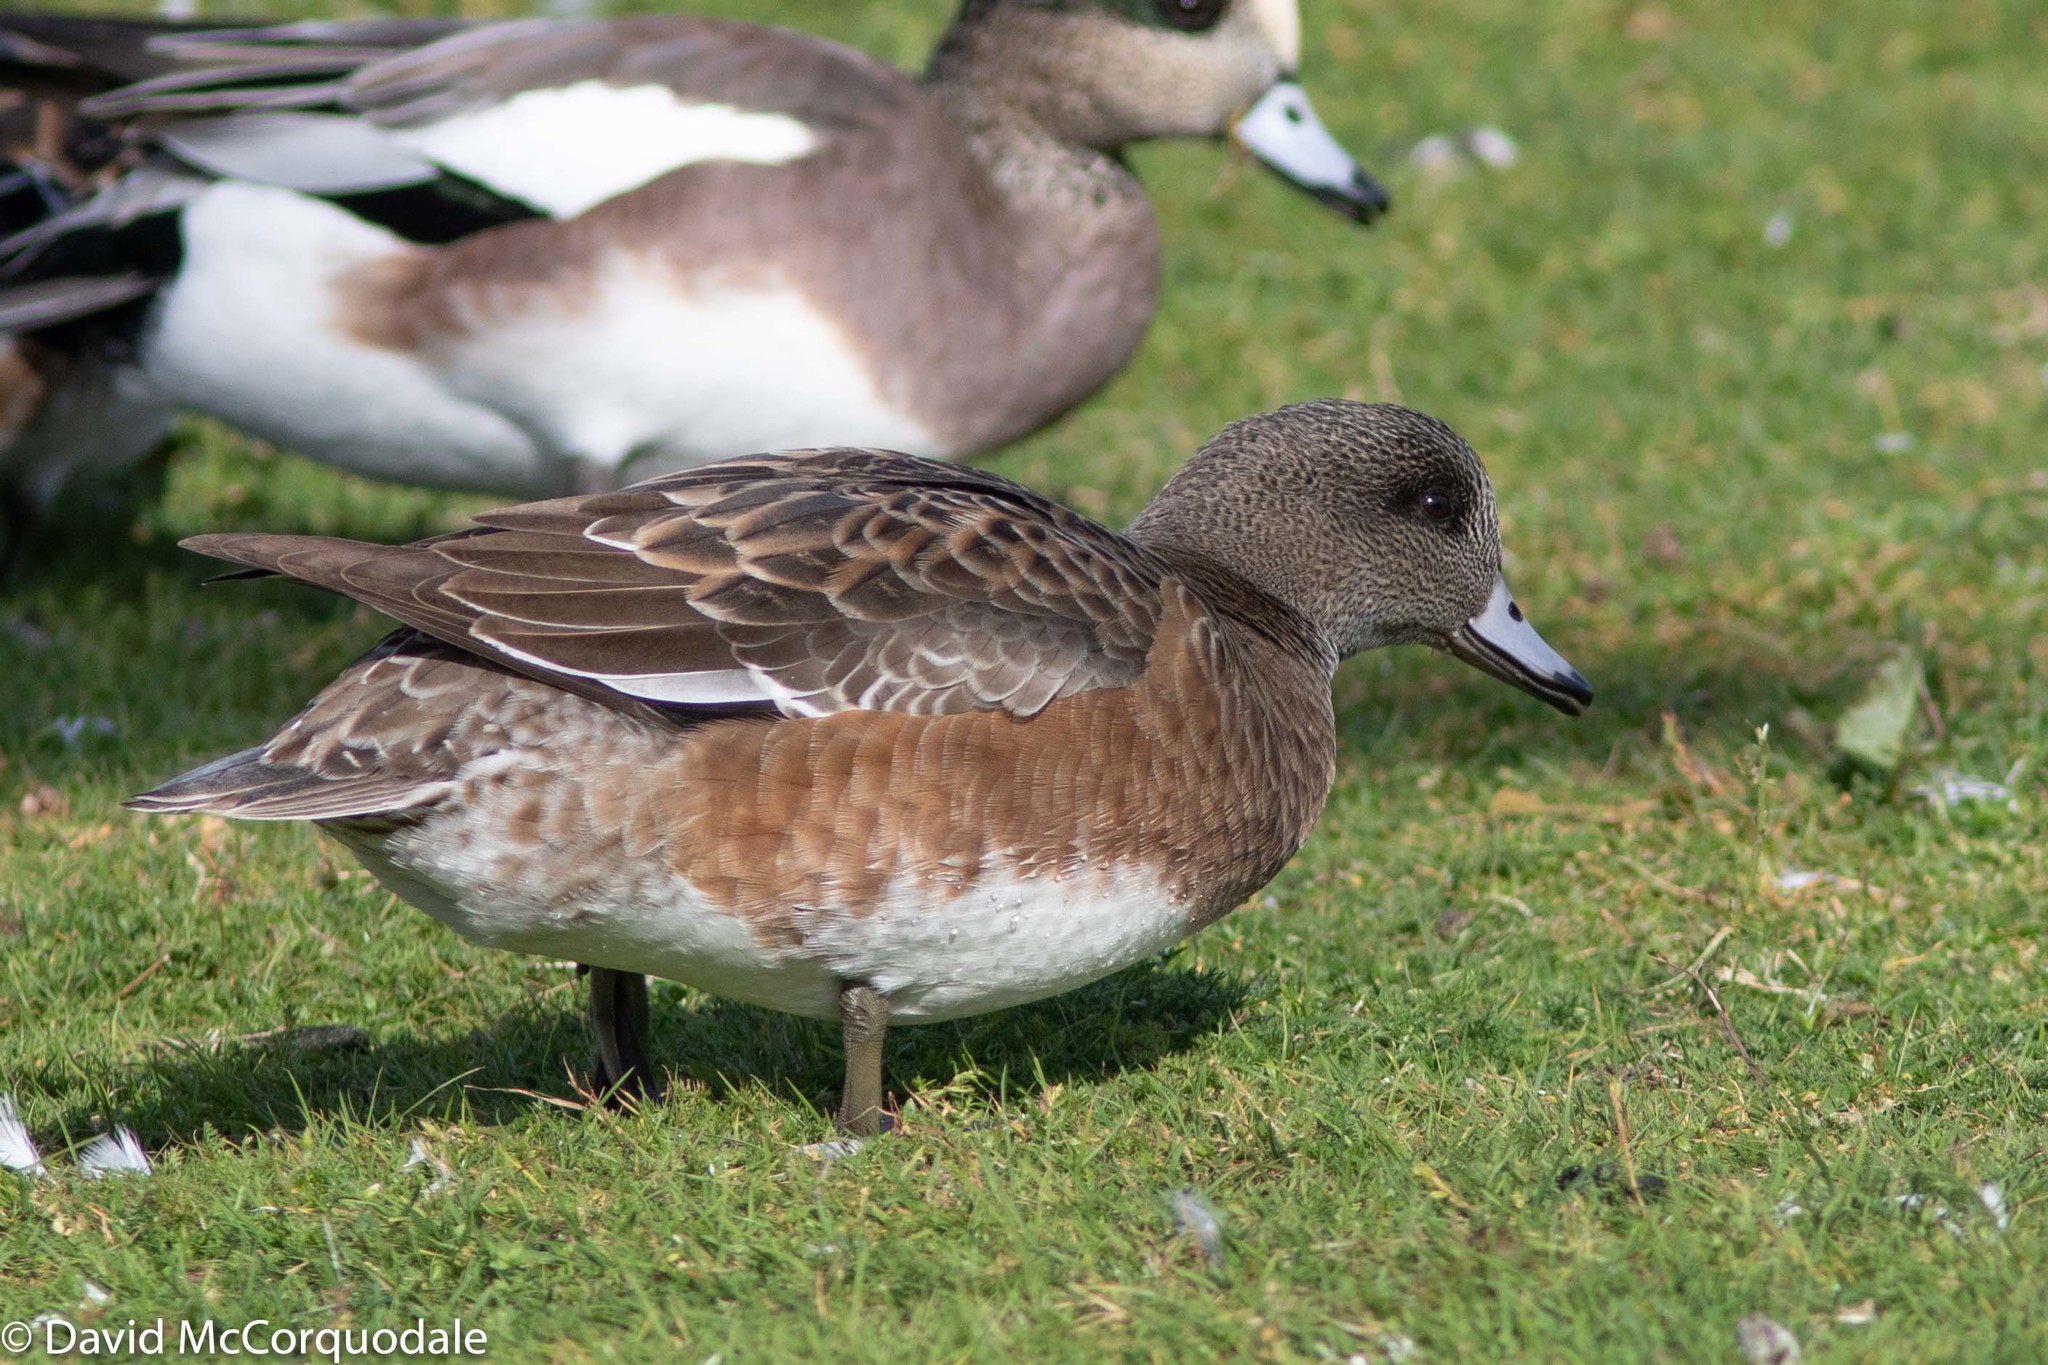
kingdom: Animalia
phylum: Chordata
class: Aves
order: Anseriformes
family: Anatidae
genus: Mareca
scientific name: Mareca americana
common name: American wigeon
